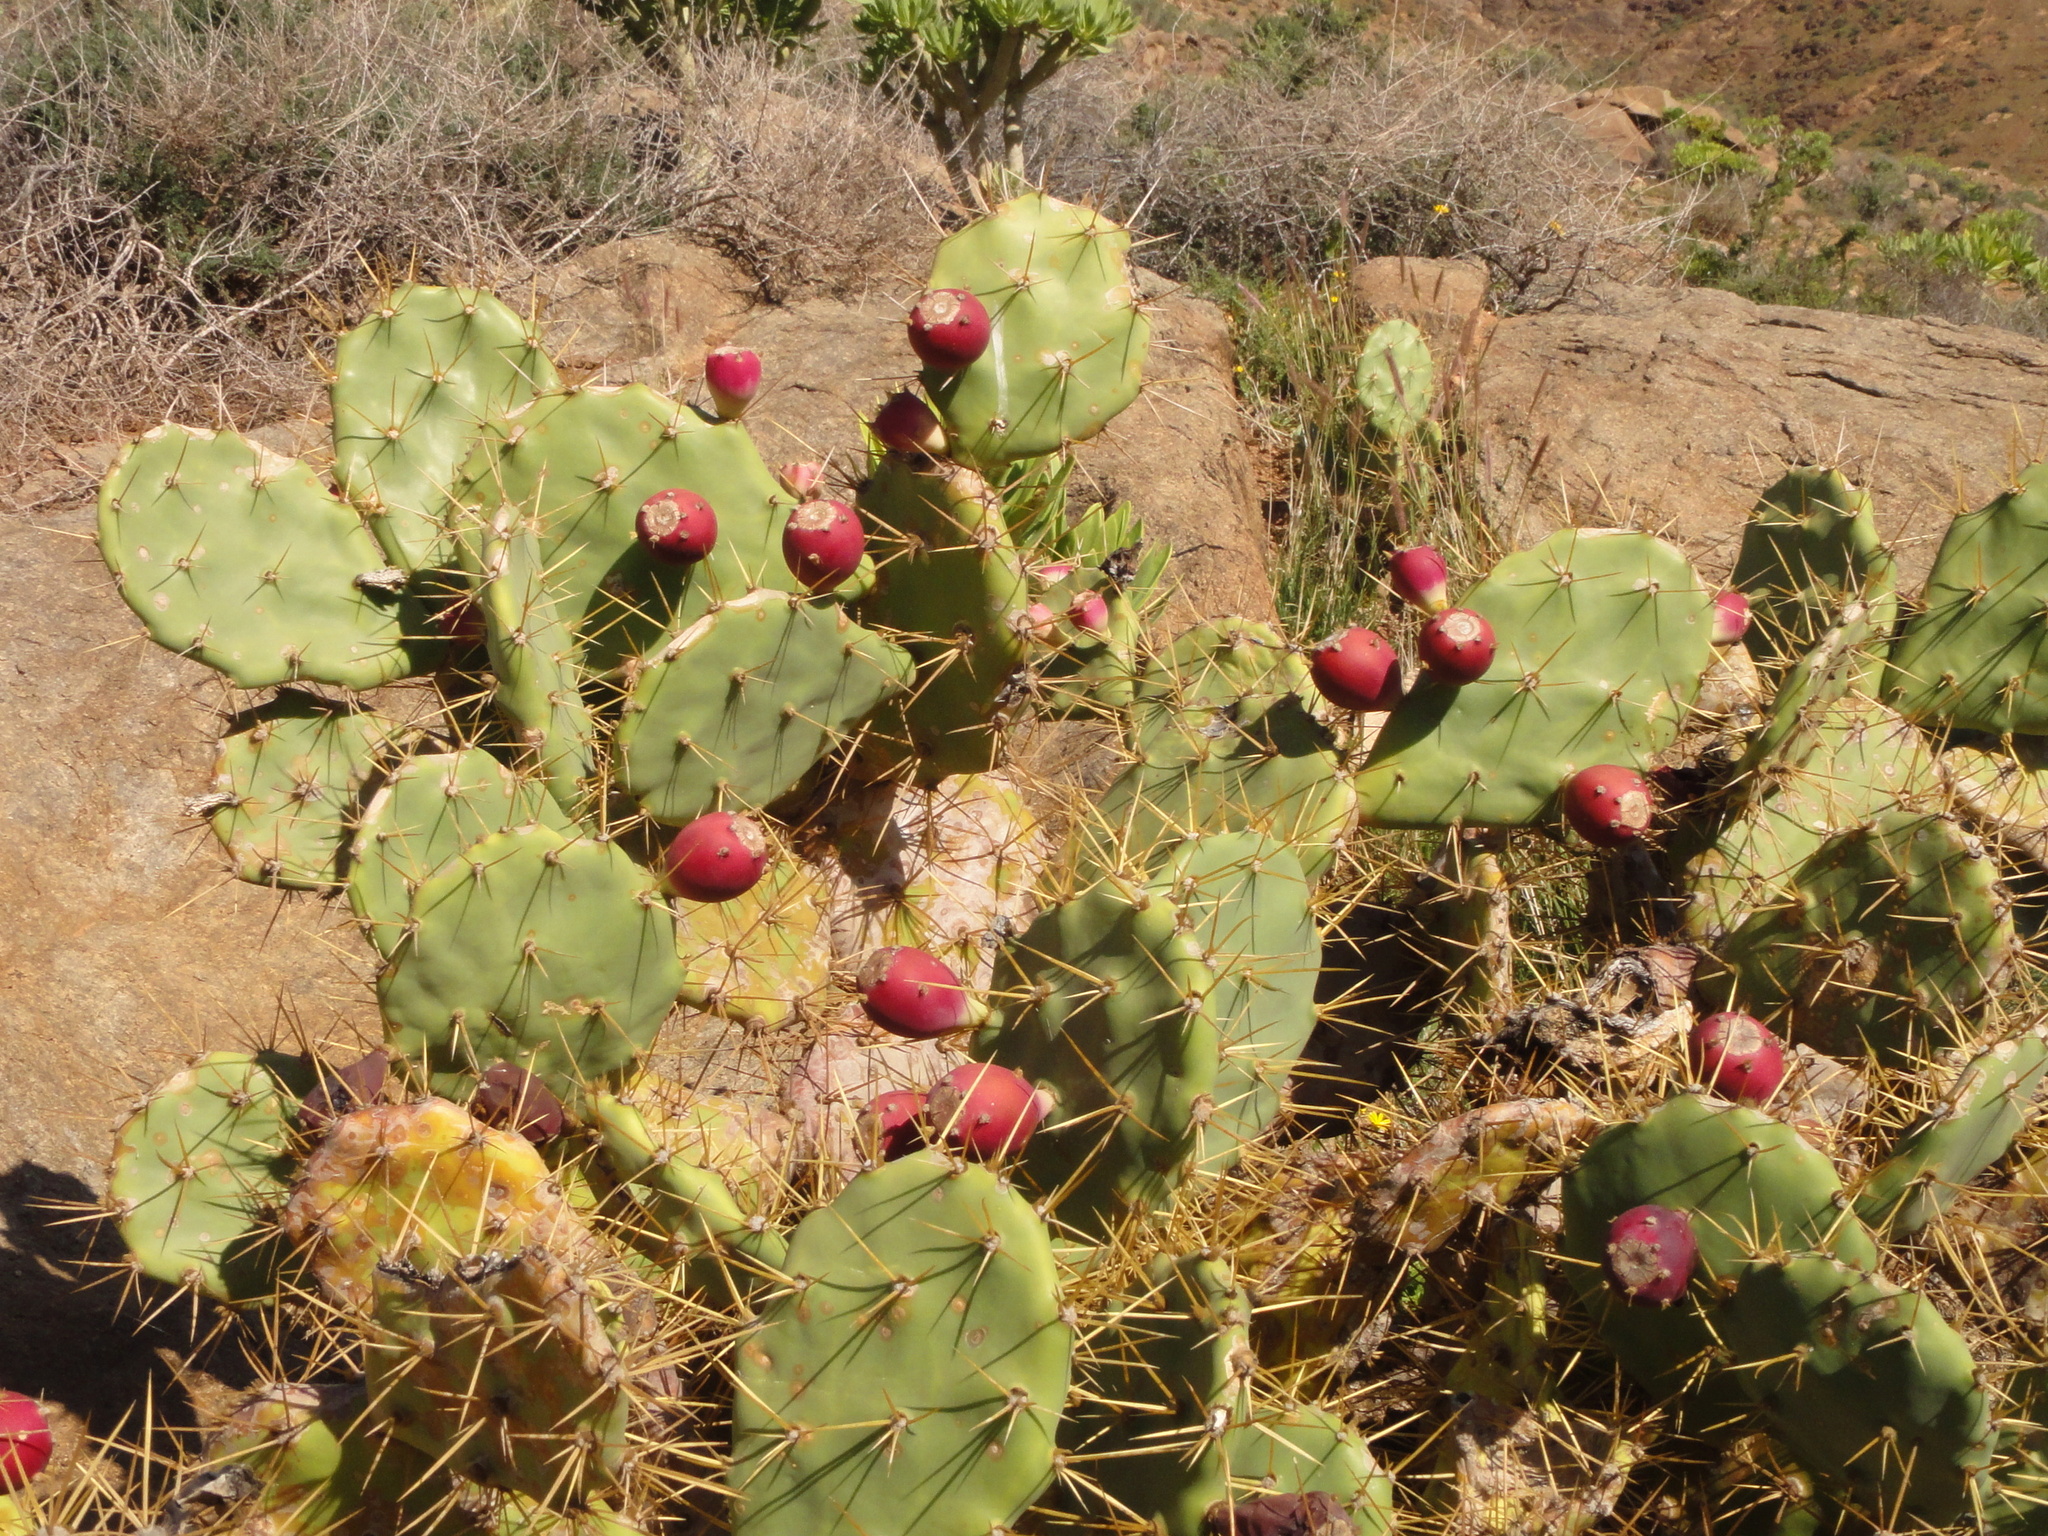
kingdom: Plantae
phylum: Tracheophyta
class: Magnoliopsida
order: Caryophyllales
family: Cactaceae
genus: Opuntia
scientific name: Opuntia stricta
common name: Erect pricklypear
